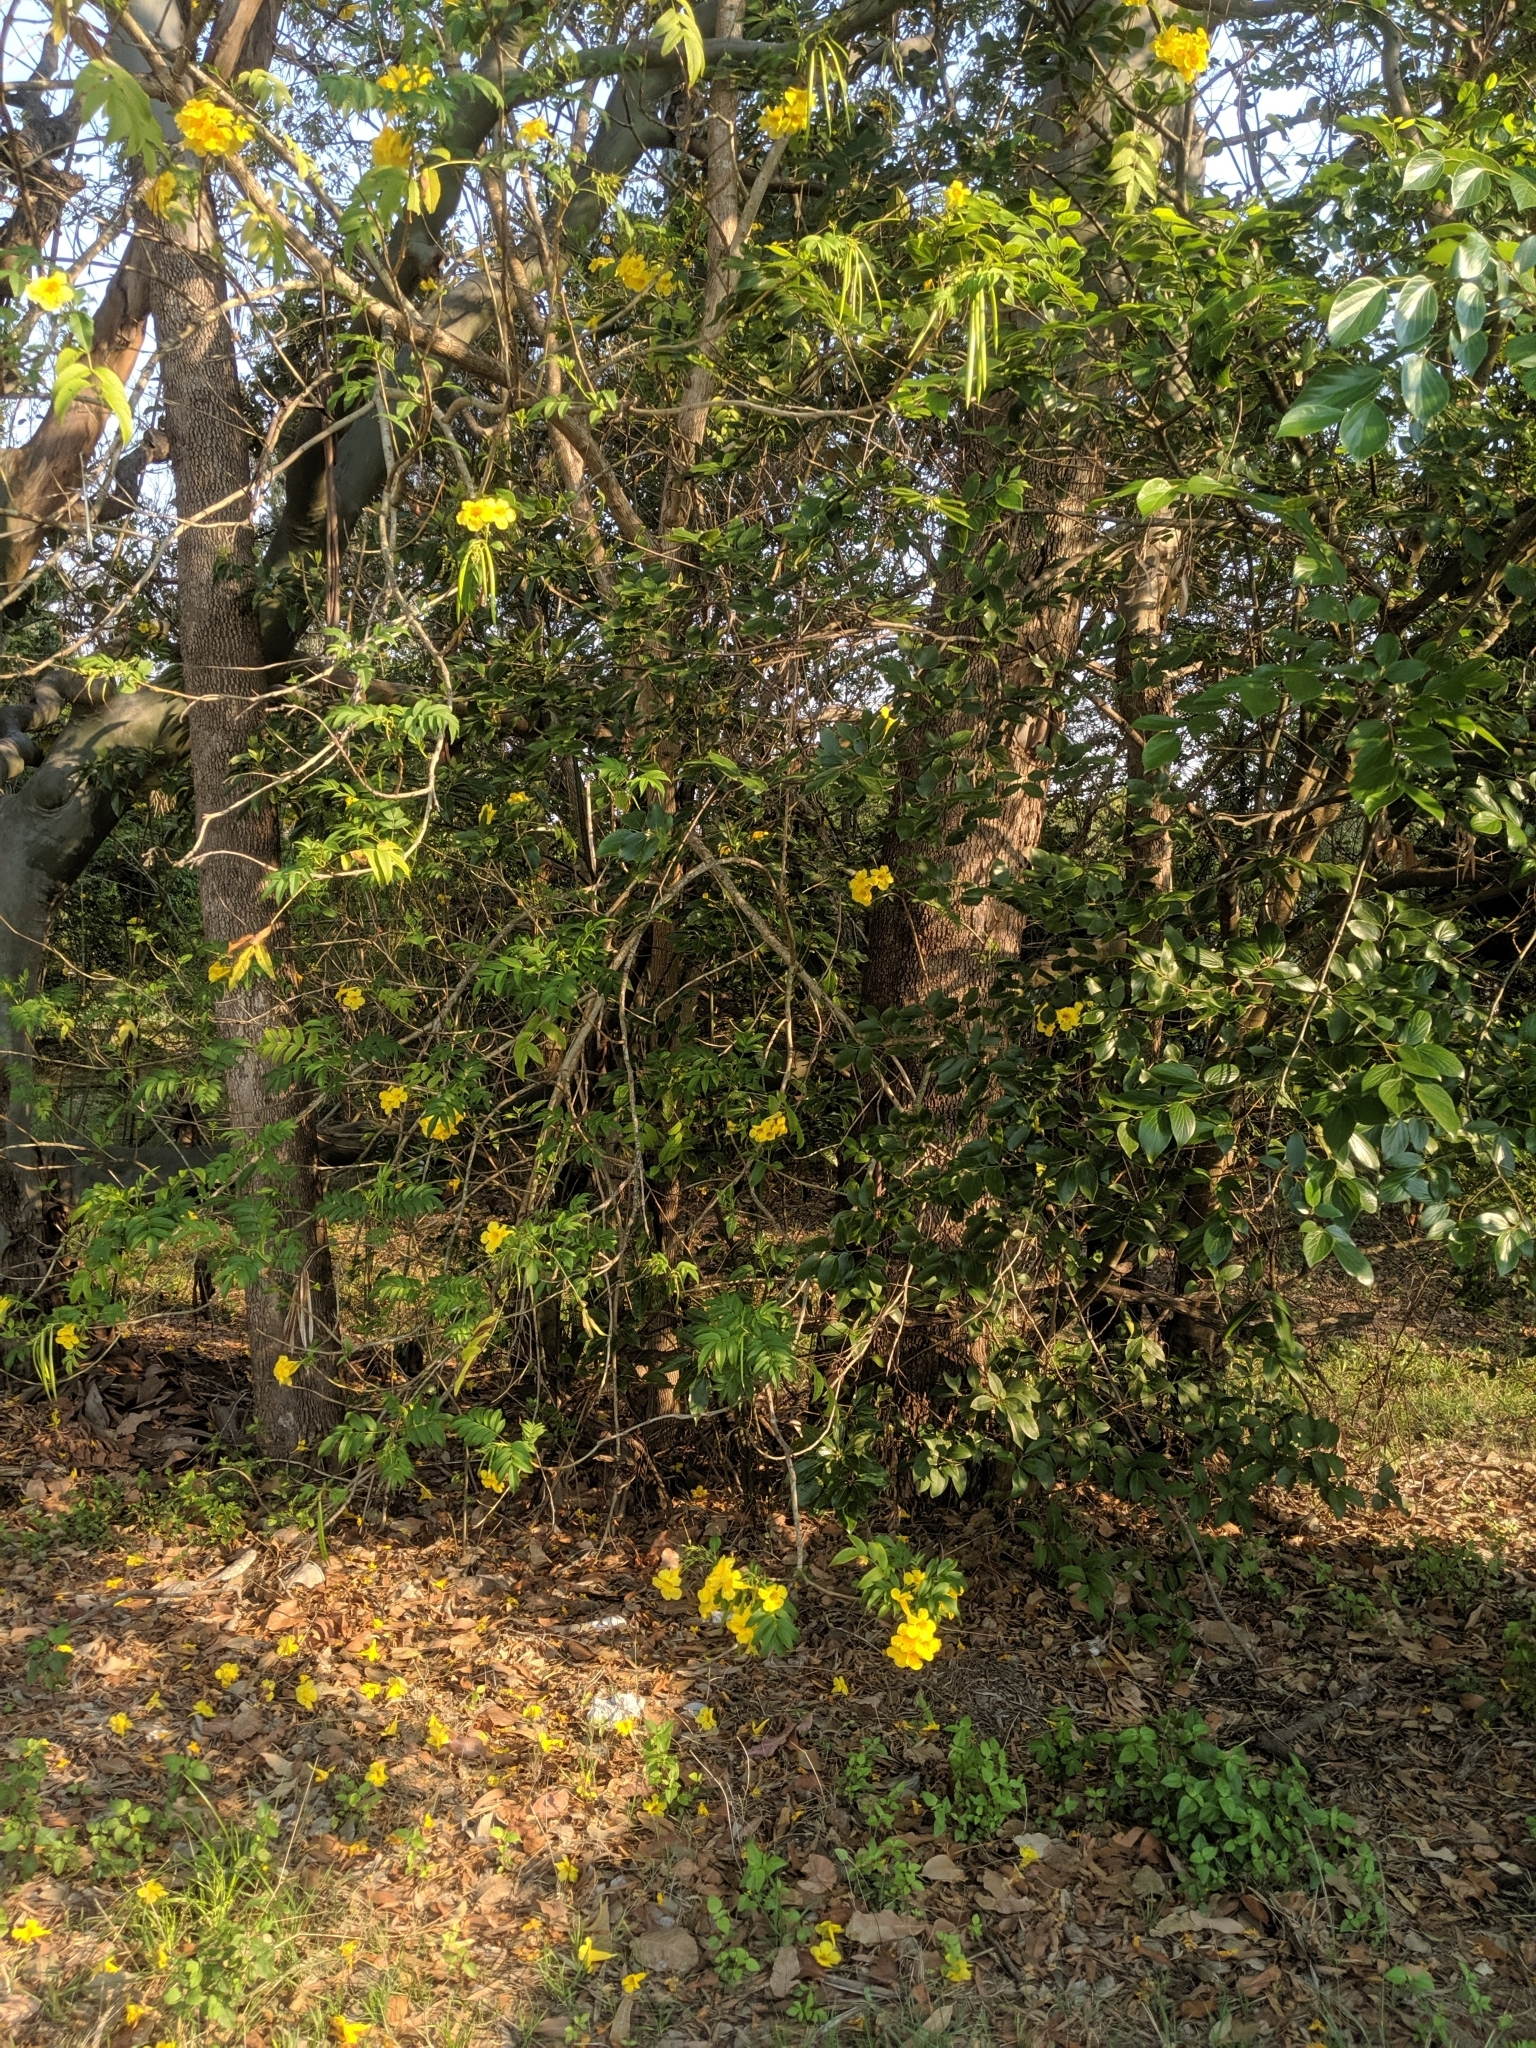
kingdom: Plantae
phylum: Tracheophyta
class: Magnoliopsida
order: Lamiales
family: Bignoniaceae
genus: Tecoma
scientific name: Tecoma stans
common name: Yellow trumpetbush
